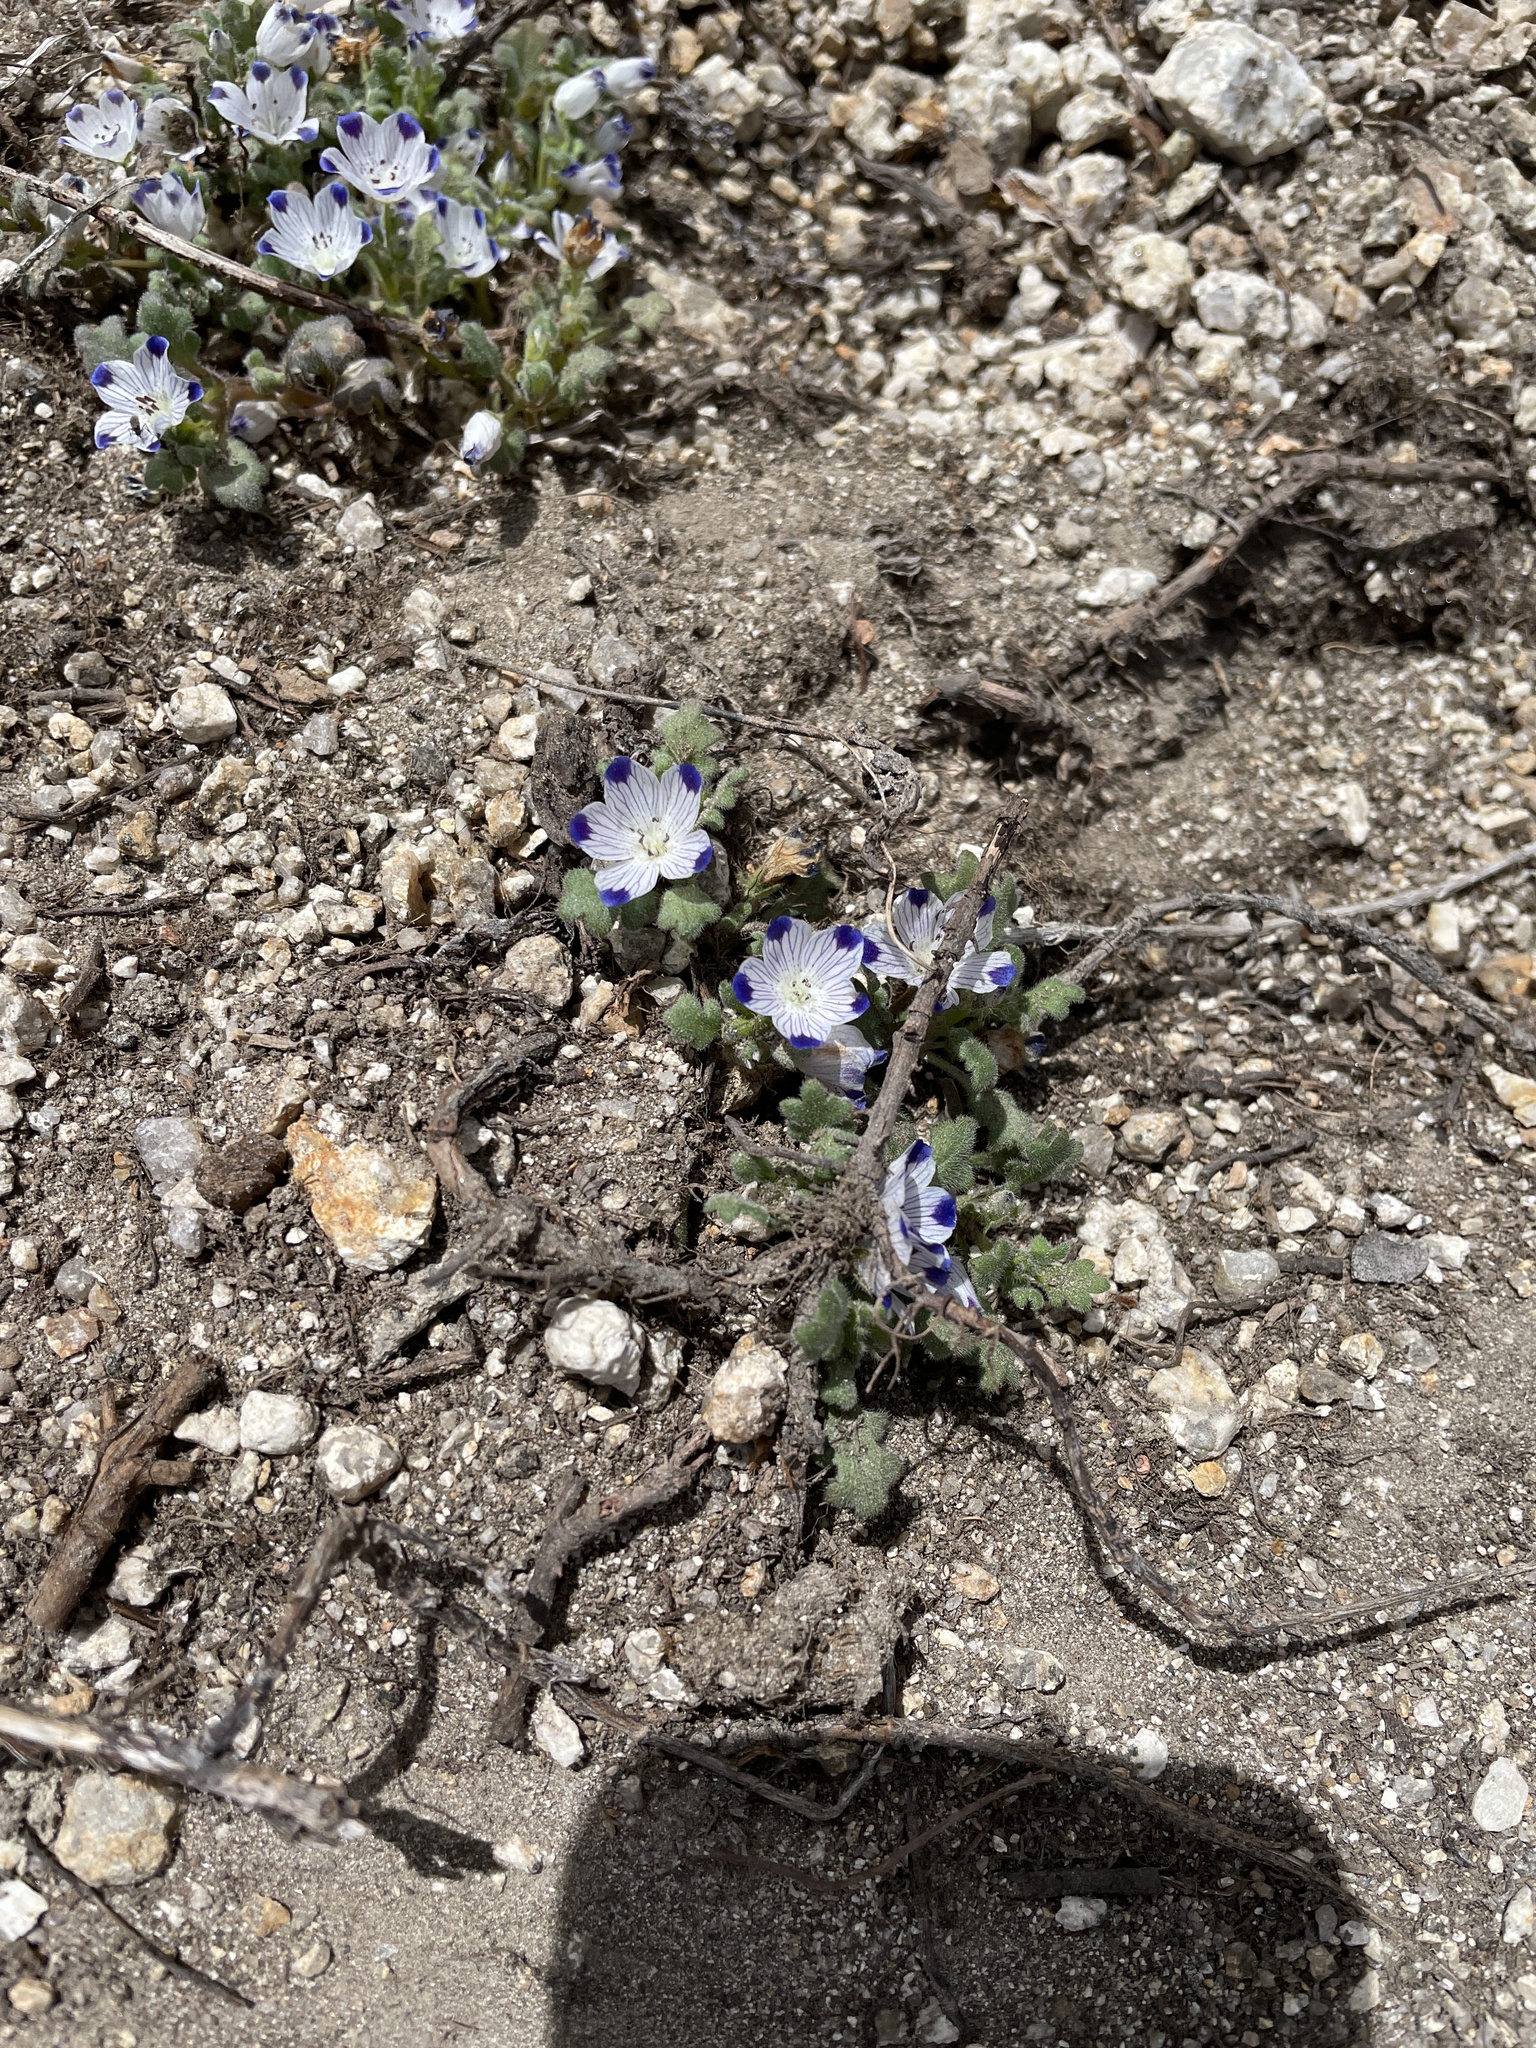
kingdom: Plantae
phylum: Tracheophyta
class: Magnoliopsida
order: Boraginales
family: Hydrophyllaceae
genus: Nemophila
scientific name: Nemophila maculata
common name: Fivespot
